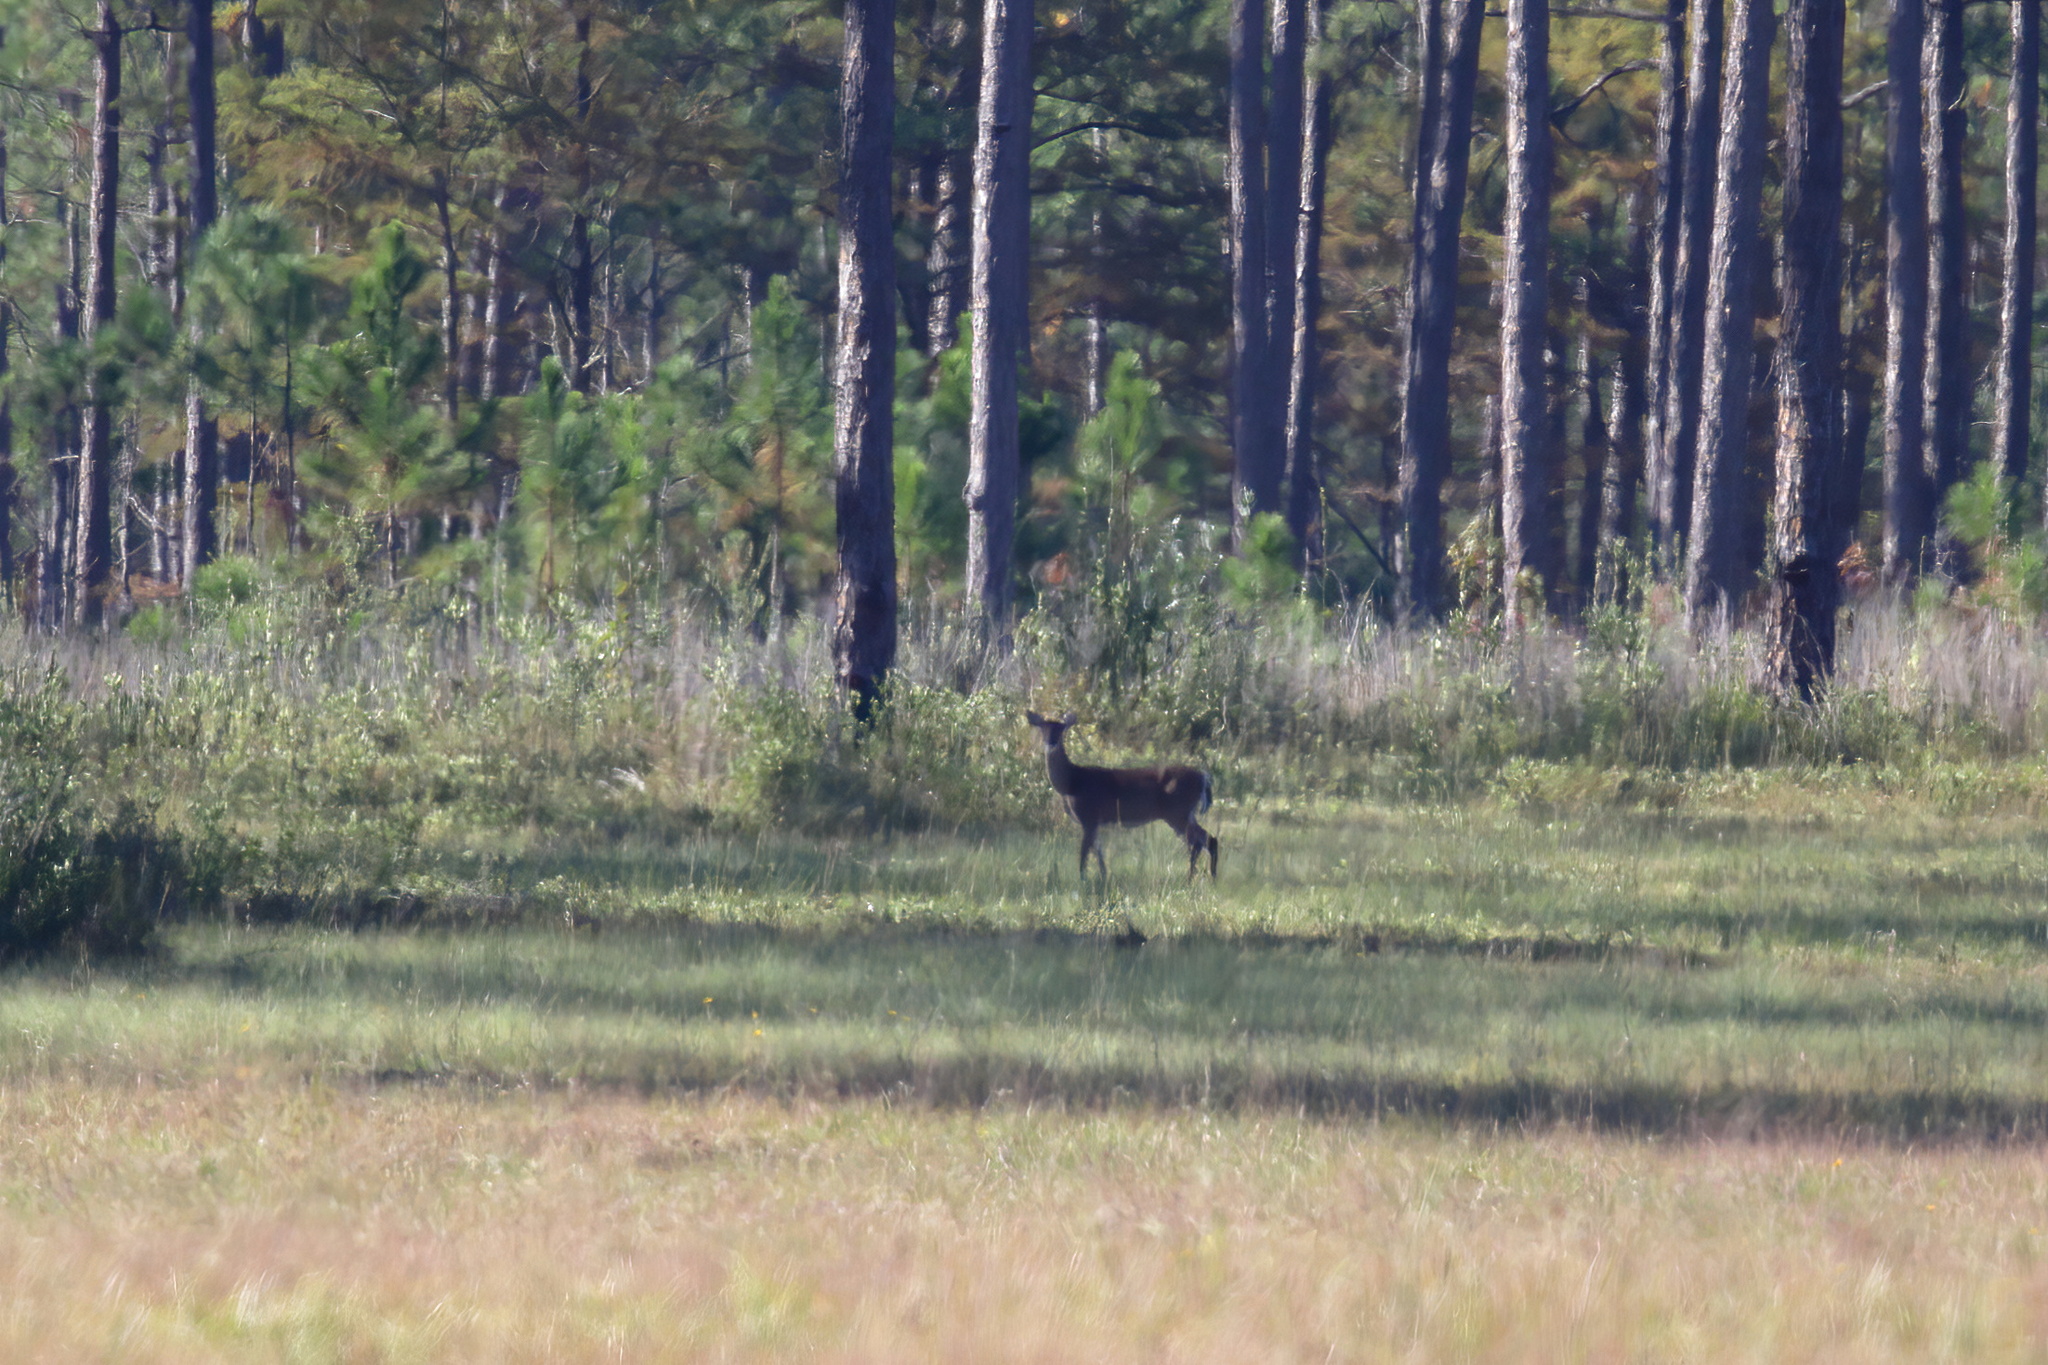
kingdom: Animalia
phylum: Chordata
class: Mammalia
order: Artiodactyla
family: Cervidae
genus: Odocoileus
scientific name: Odocoileus virginianus
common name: White-tailed deer
